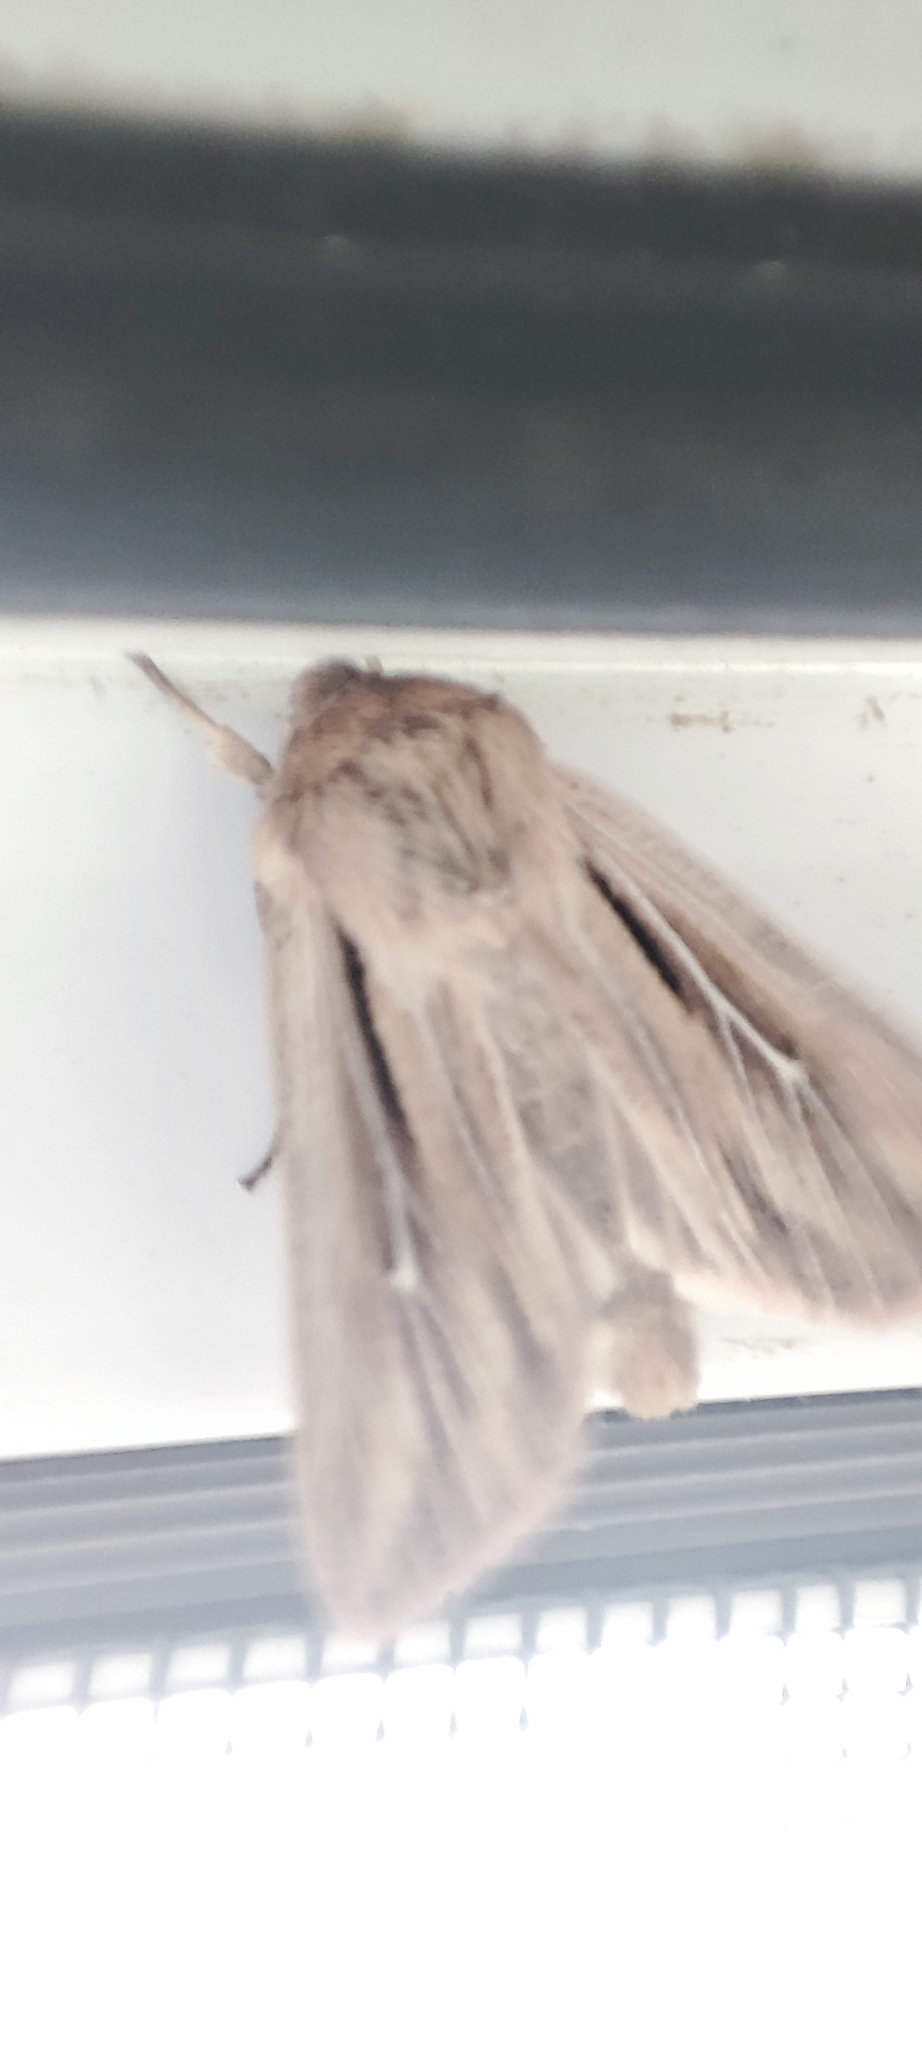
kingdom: Animalia
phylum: Arthropoda
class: Insecta
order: Lepidoptera
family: Noctuidae
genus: Leucania
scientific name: Leucania comma
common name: Shoulder-striped wainscot
